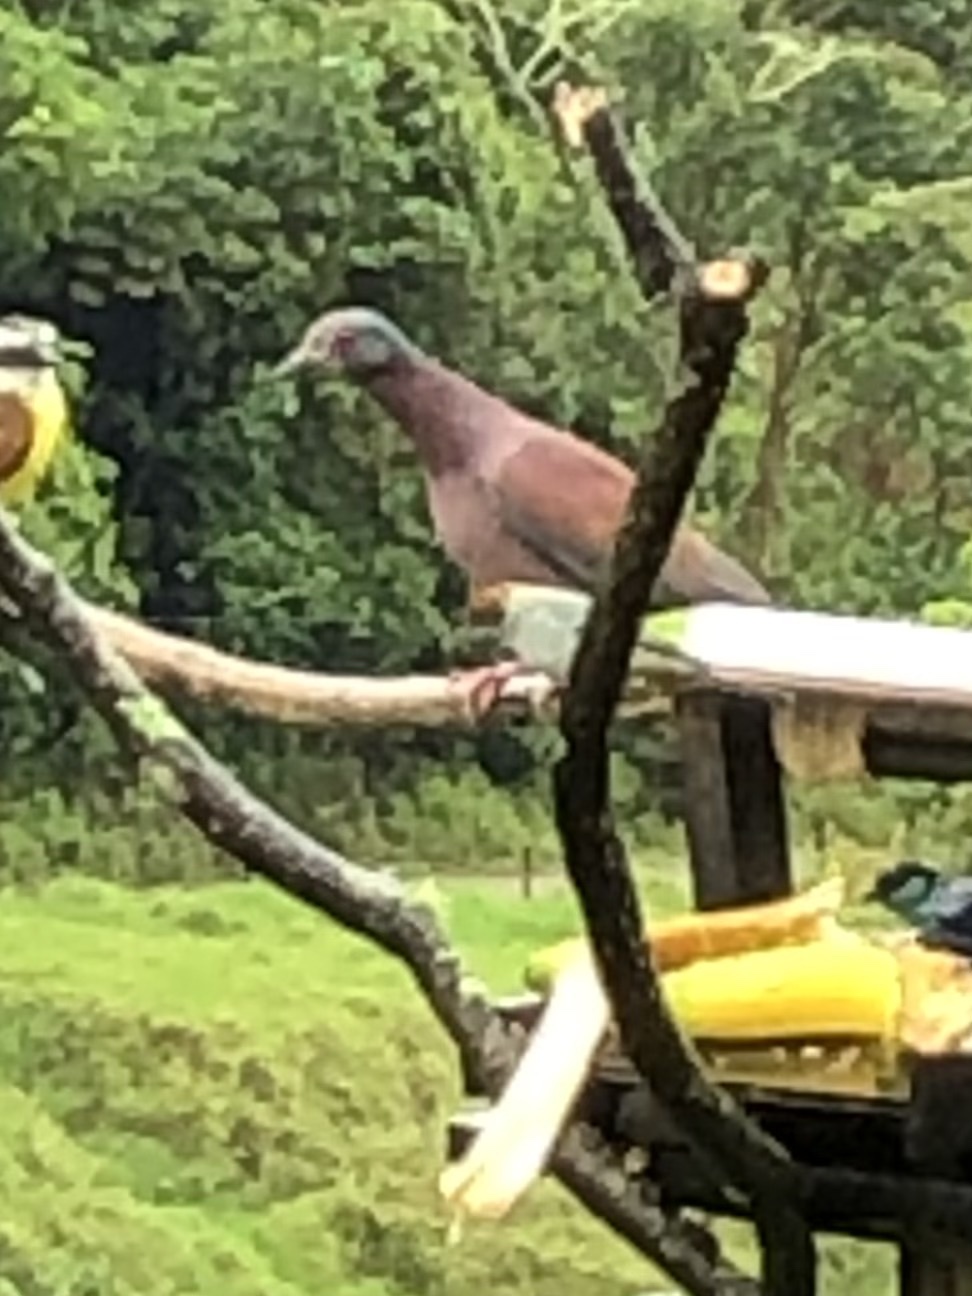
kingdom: Animalia
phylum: Chordata
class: Aves
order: Columbiformes
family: Columbidae
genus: Patagioenas
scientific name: Patagioenas cayennensis
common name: Pale-vented pigeon
